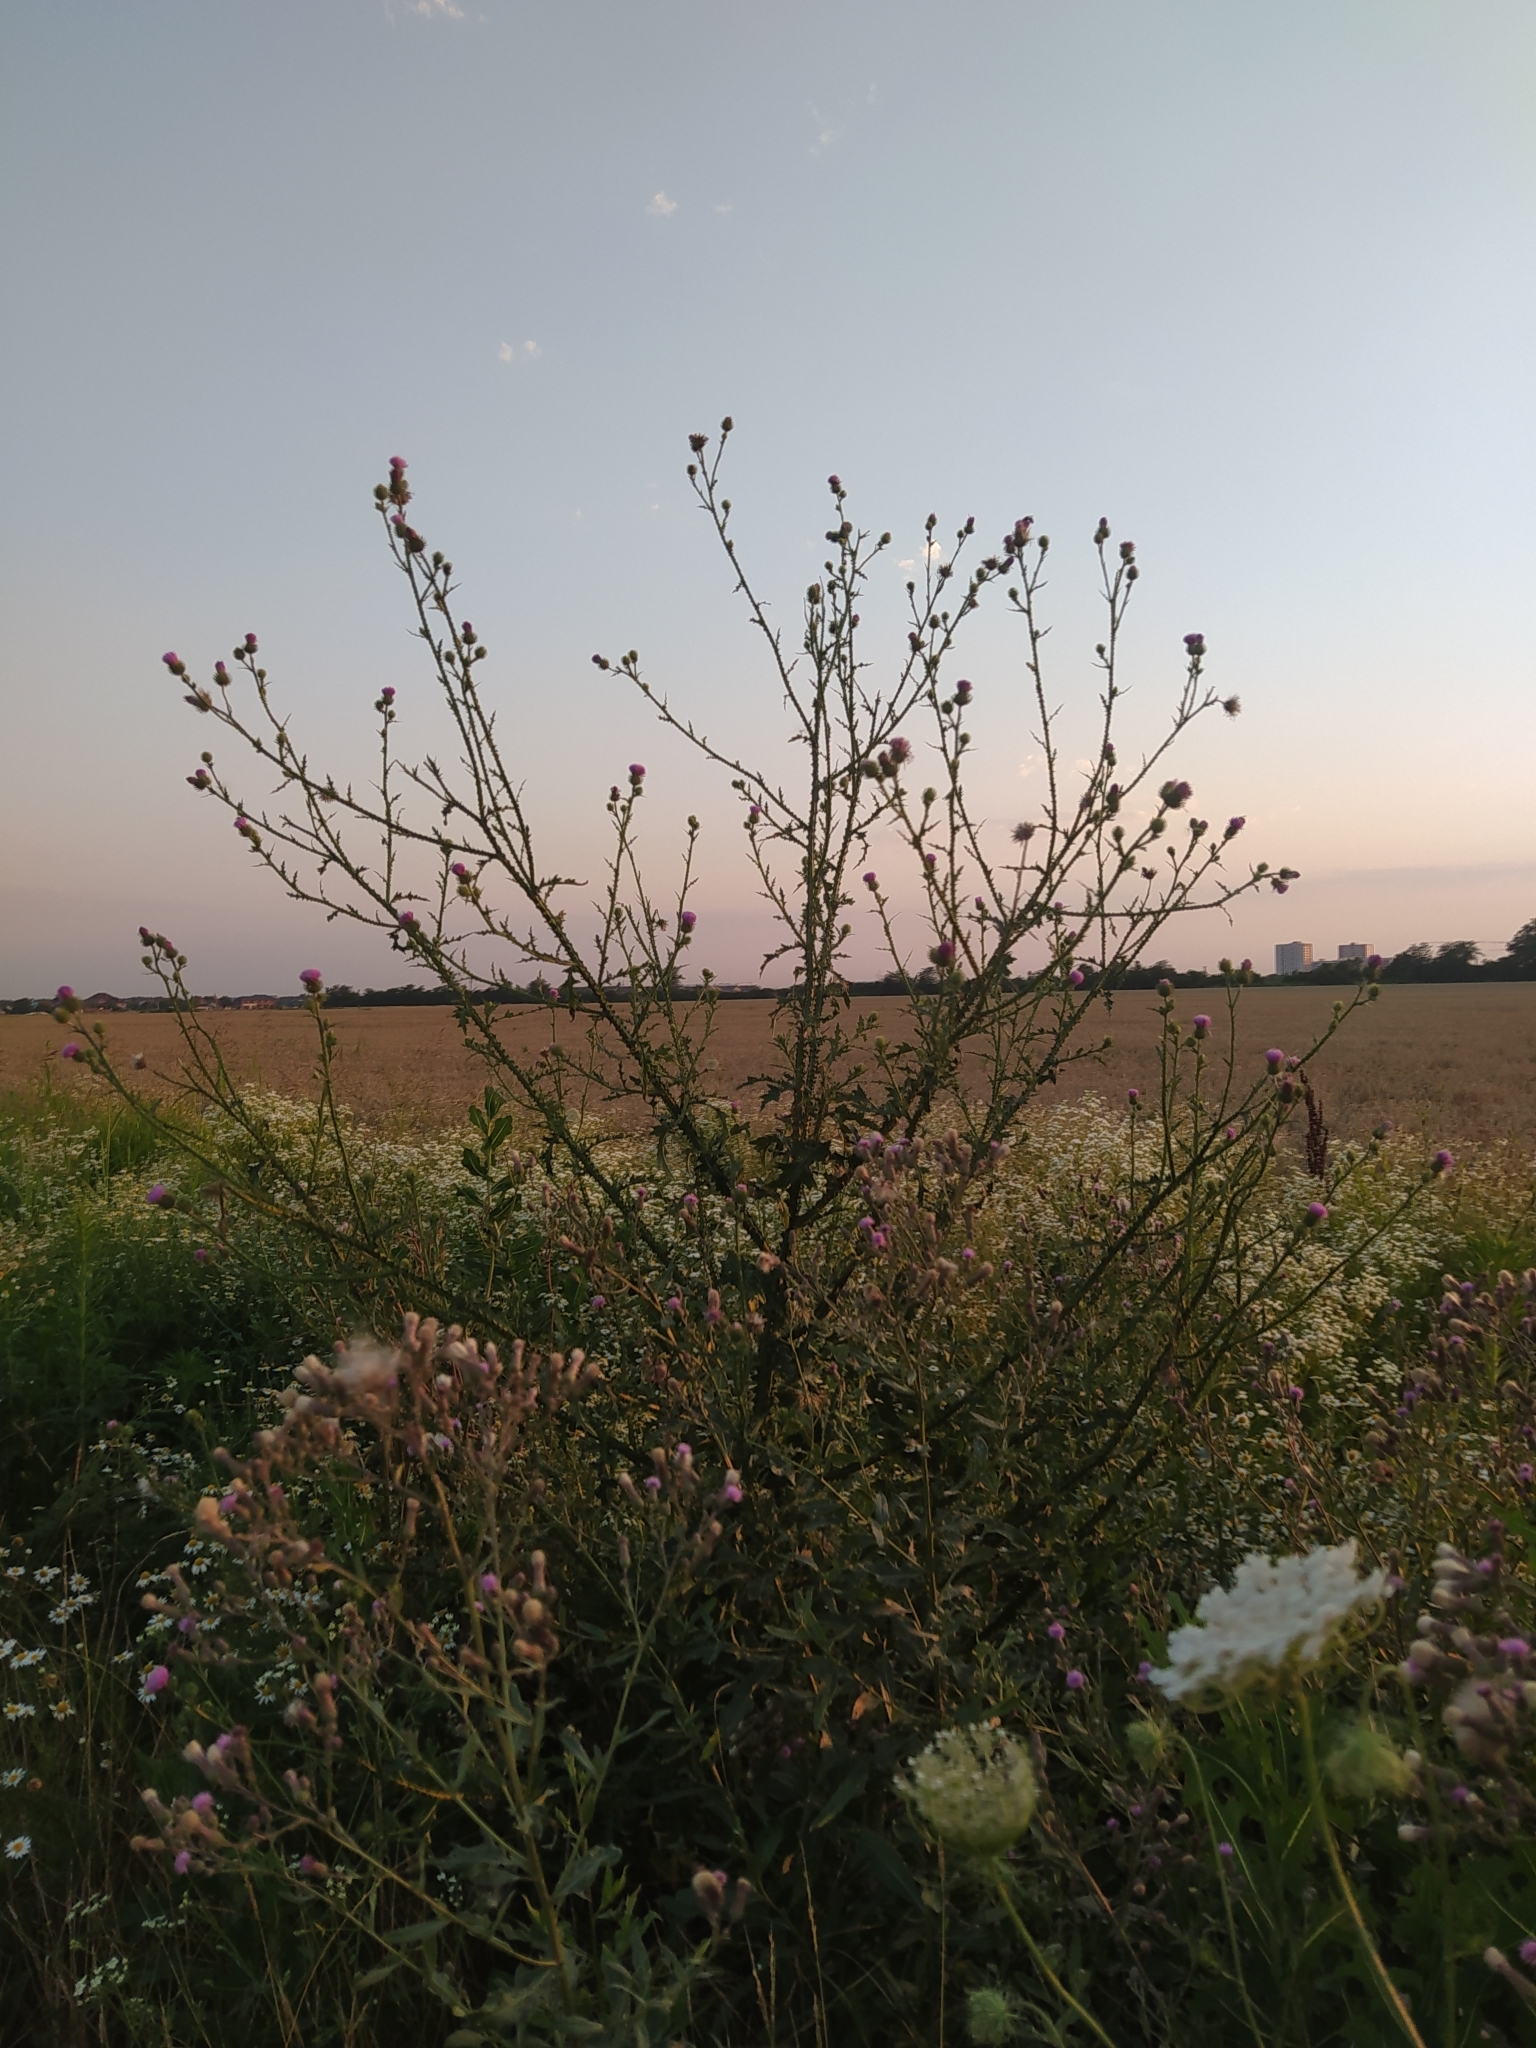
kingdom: Plantae
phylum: Tracheophyta
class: Magnoliopsida
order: Asterales
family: Asteraceae
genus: Carduus
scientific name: Carduus acanthoides
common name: Plumeless thistle
